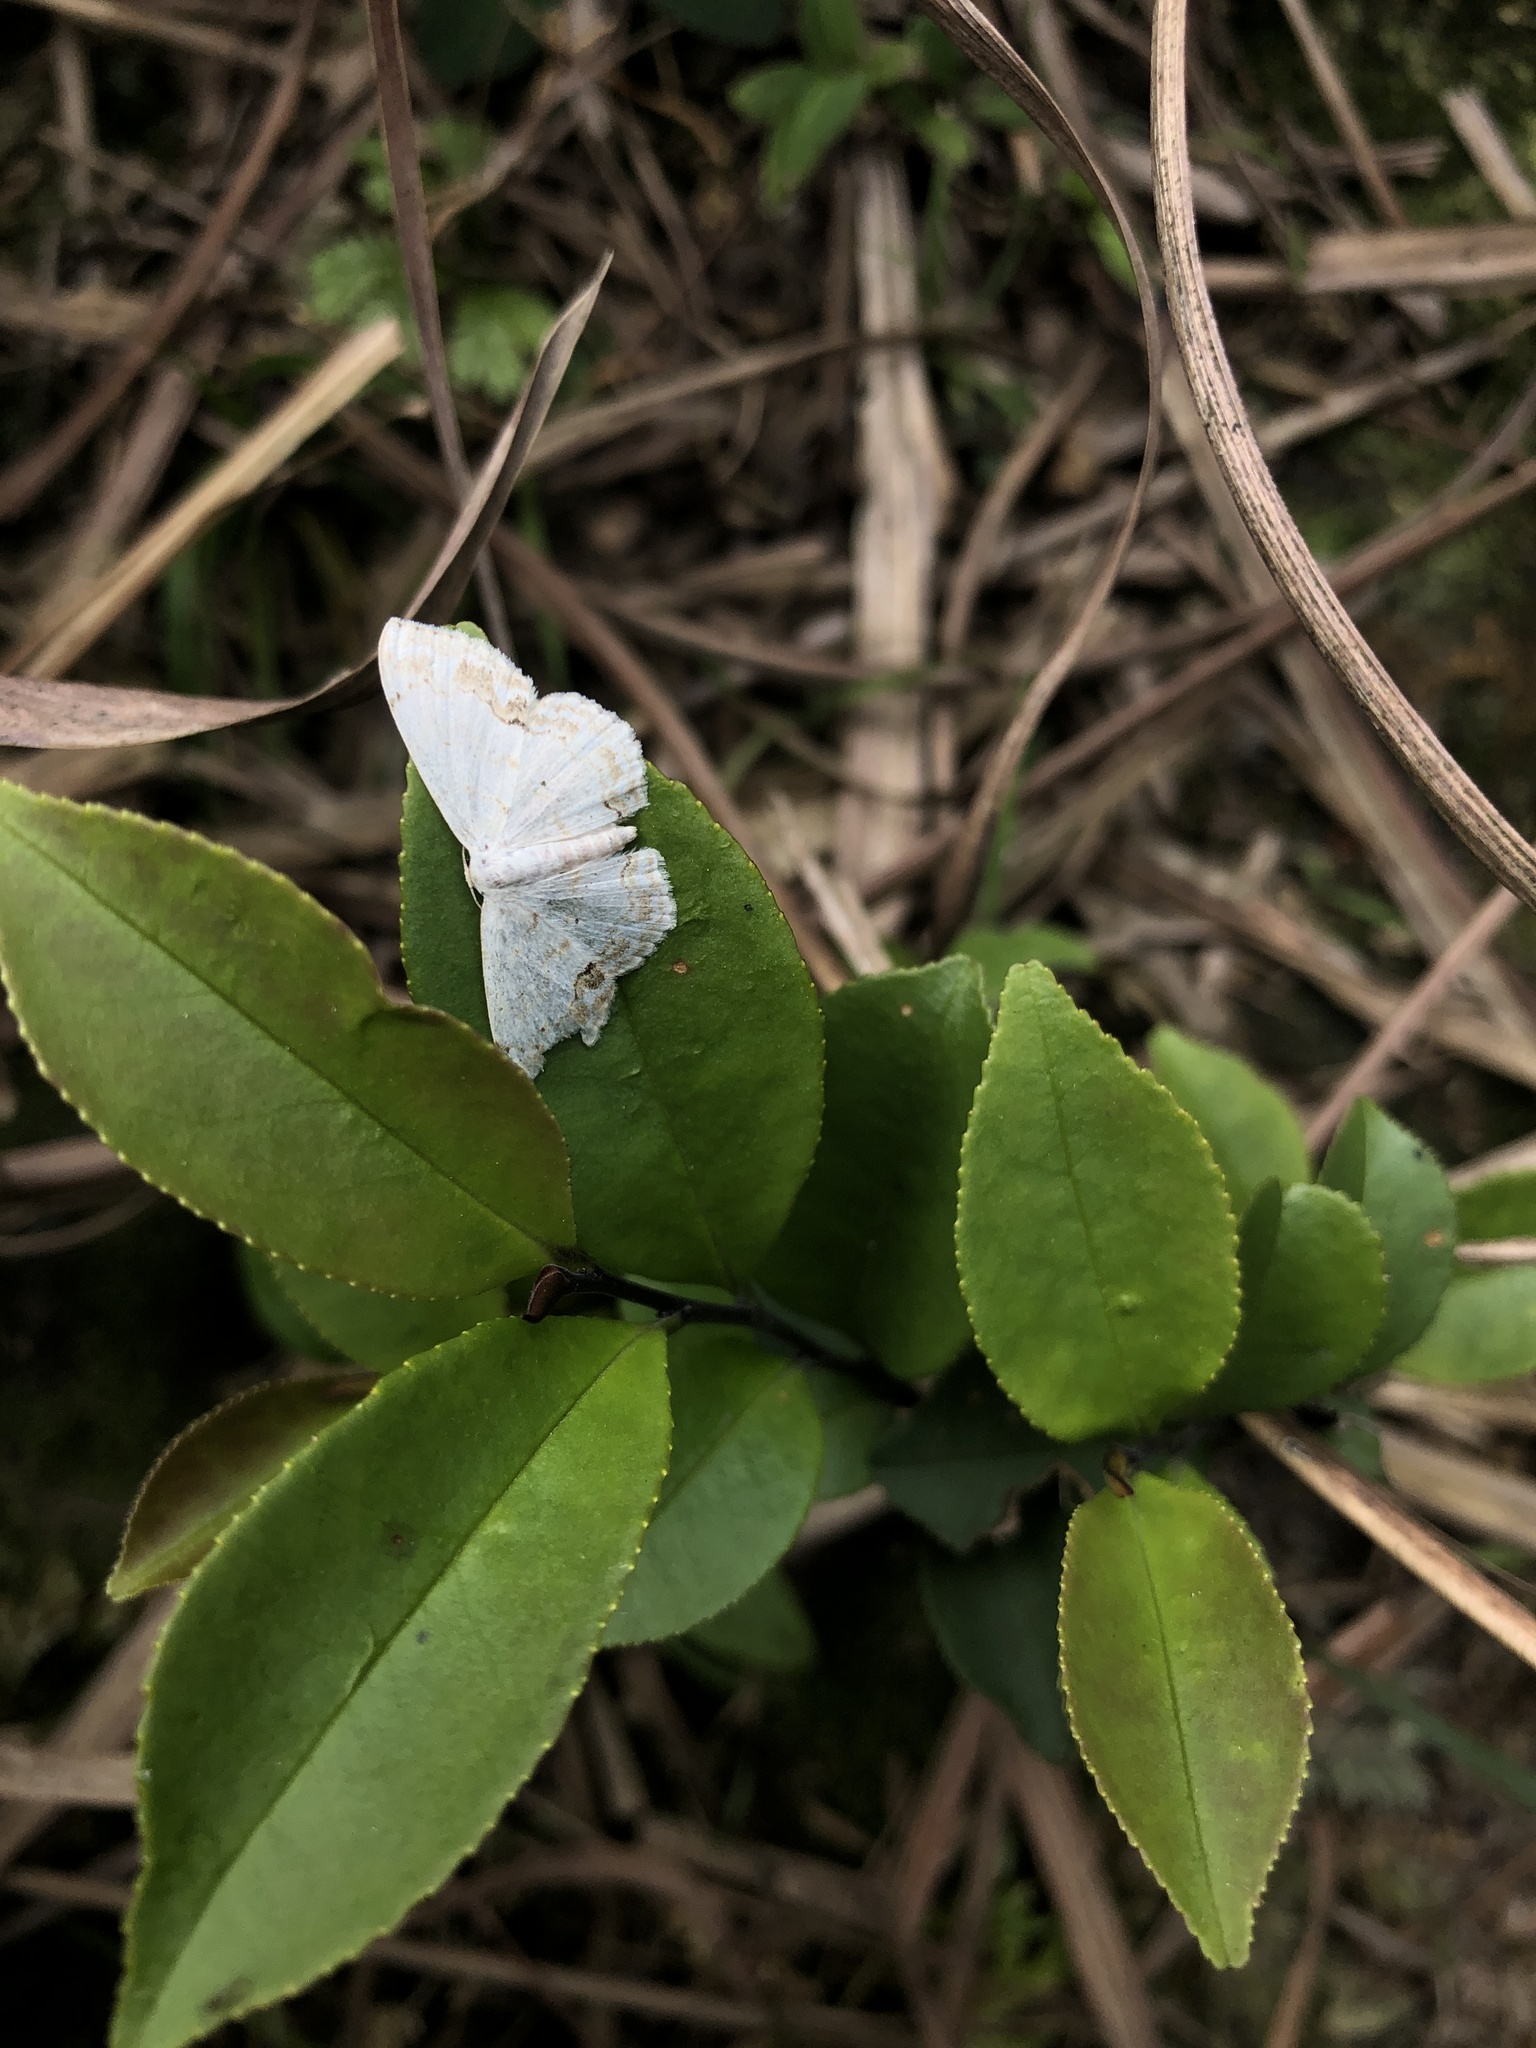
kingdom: Animalia
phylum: Arthropoda
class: Insecta
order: Lepidoptera
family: Geometridae
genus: Scopula
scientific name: Scopula propinquaria
